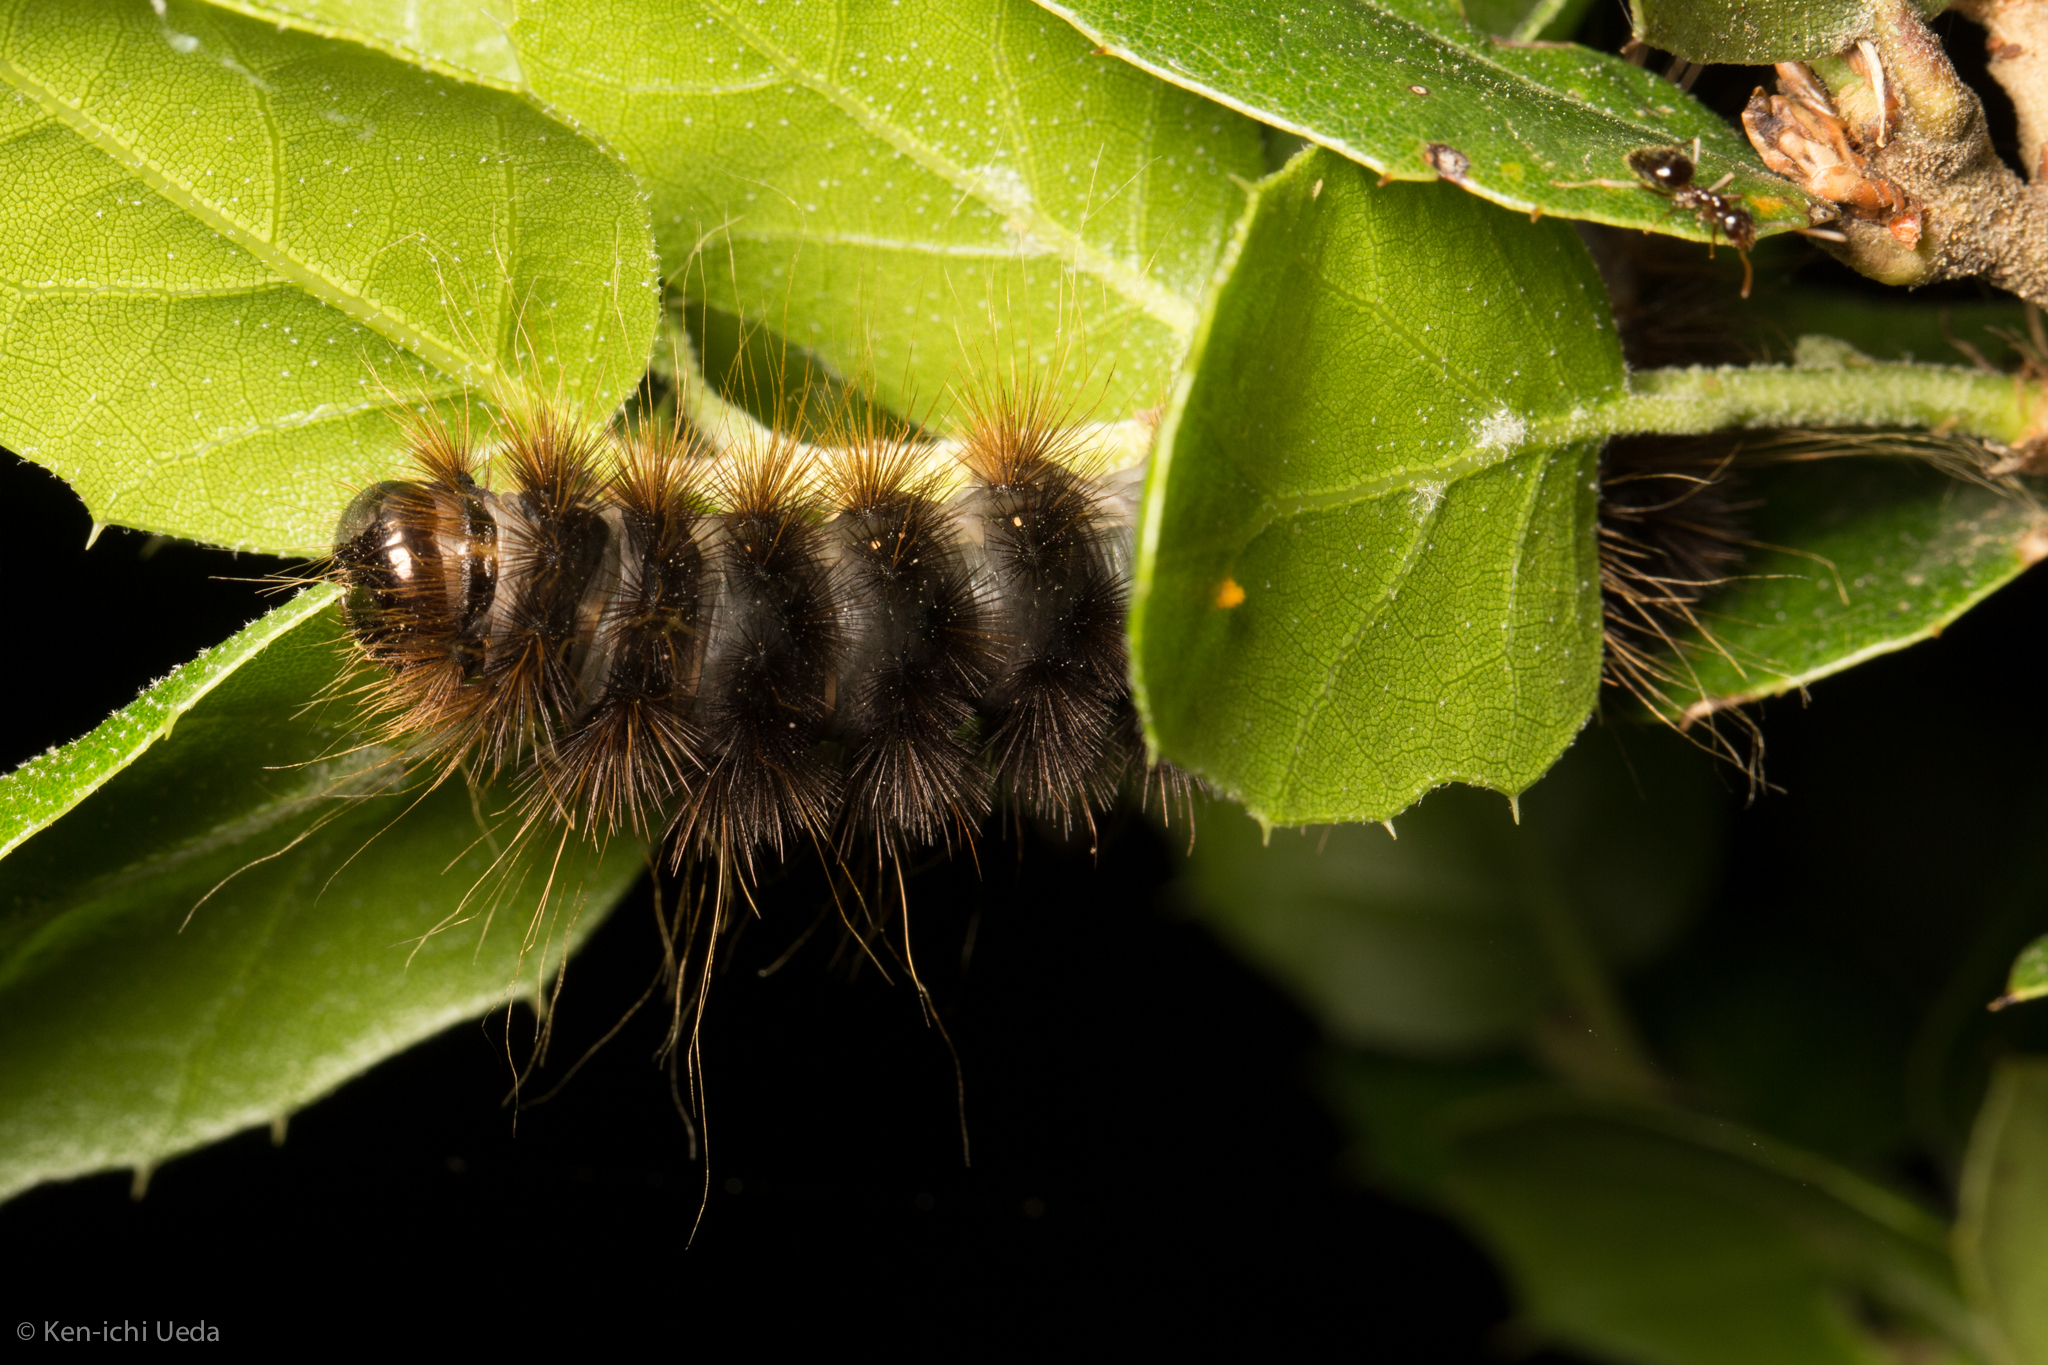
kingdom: Animalia
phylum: Arthropoda
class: Insecta
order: Lepidoptera
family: Erebidae
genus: Hemihyalea
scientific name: Hemihyalea edwardsii
